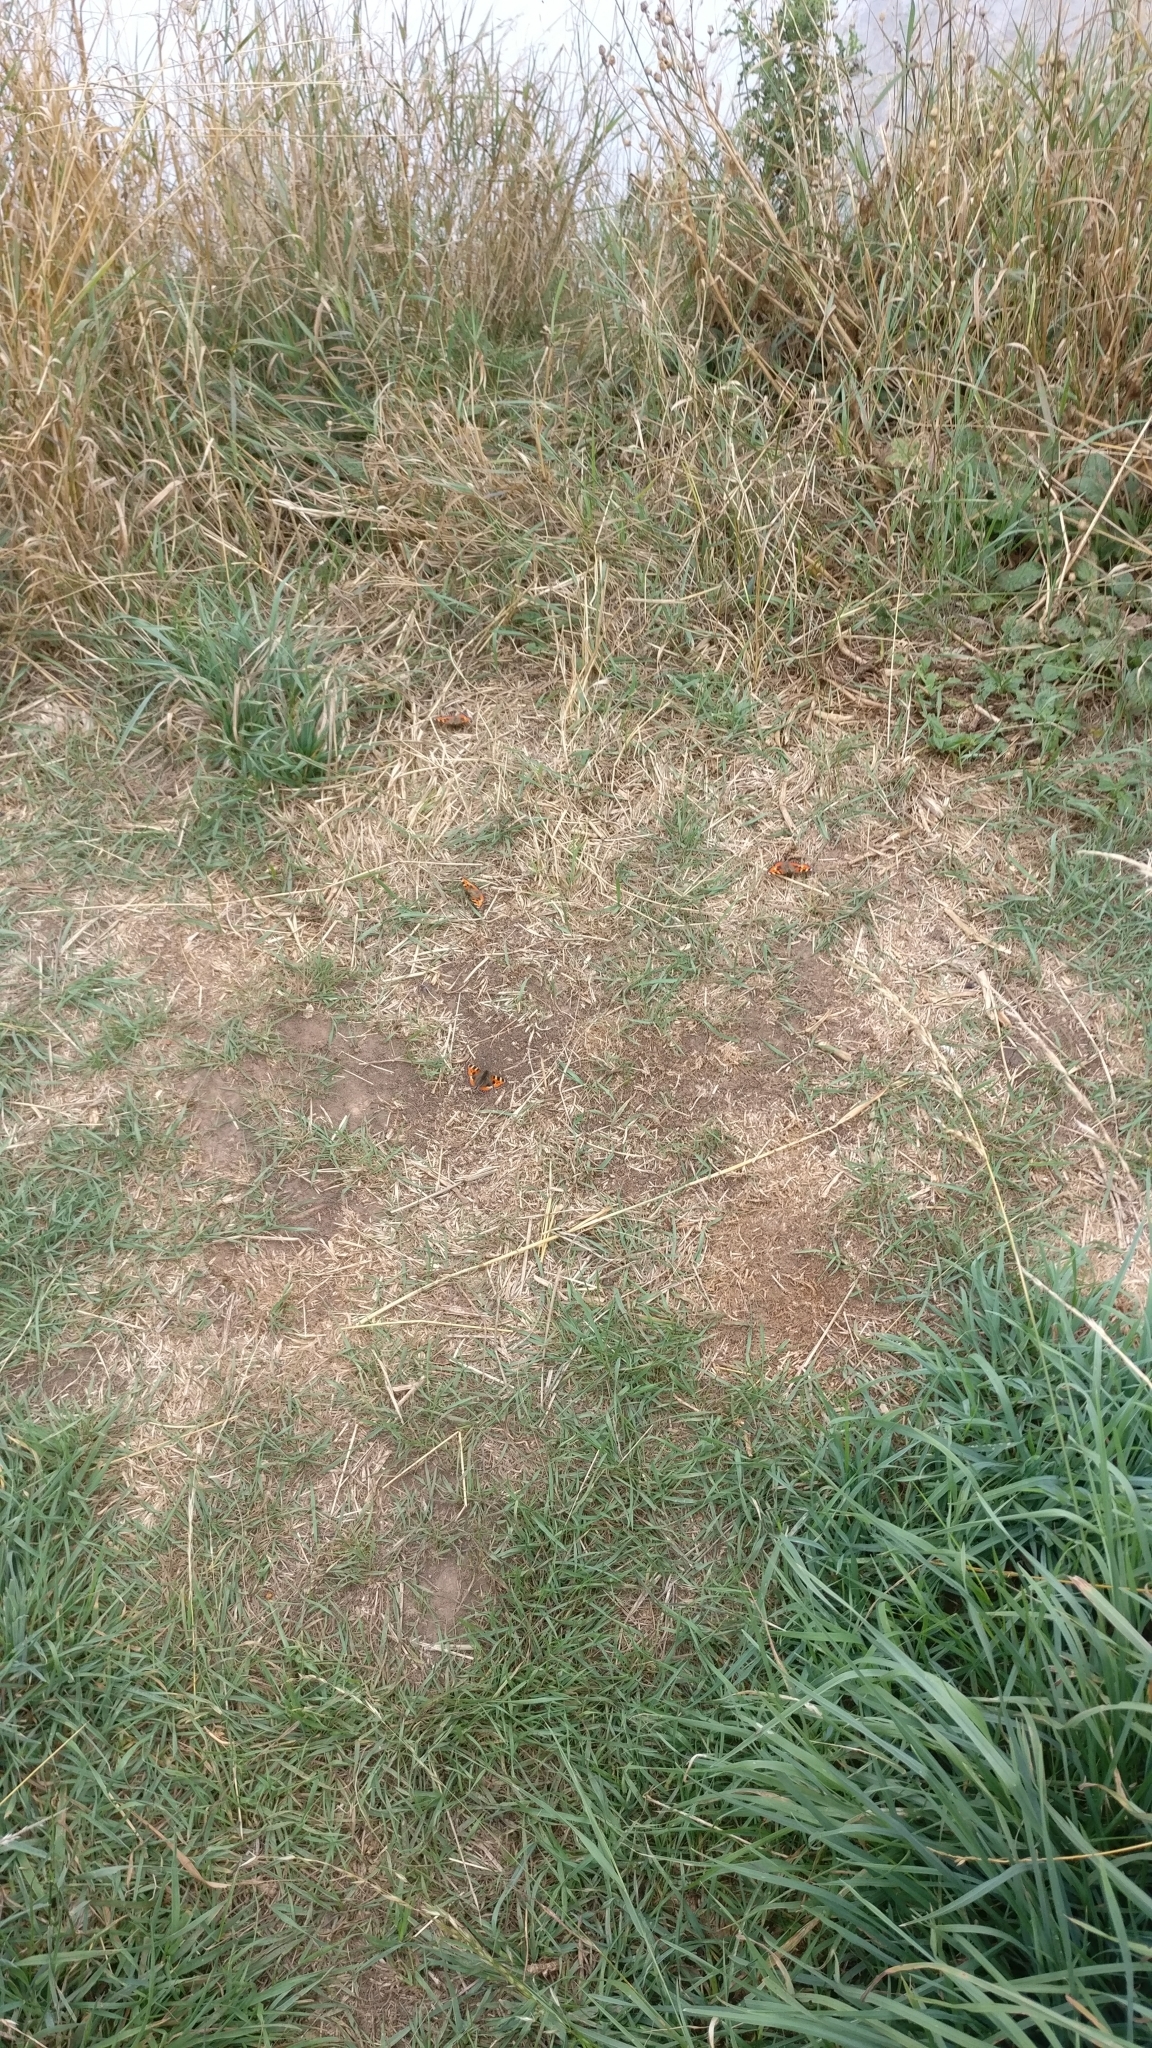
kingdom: Animalia
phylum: Arthropoda
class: Insecta
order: Lepidoptera
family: Nymphalidae
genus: Aglais
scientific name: Aglais urticae
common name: Small tortoiseshell
